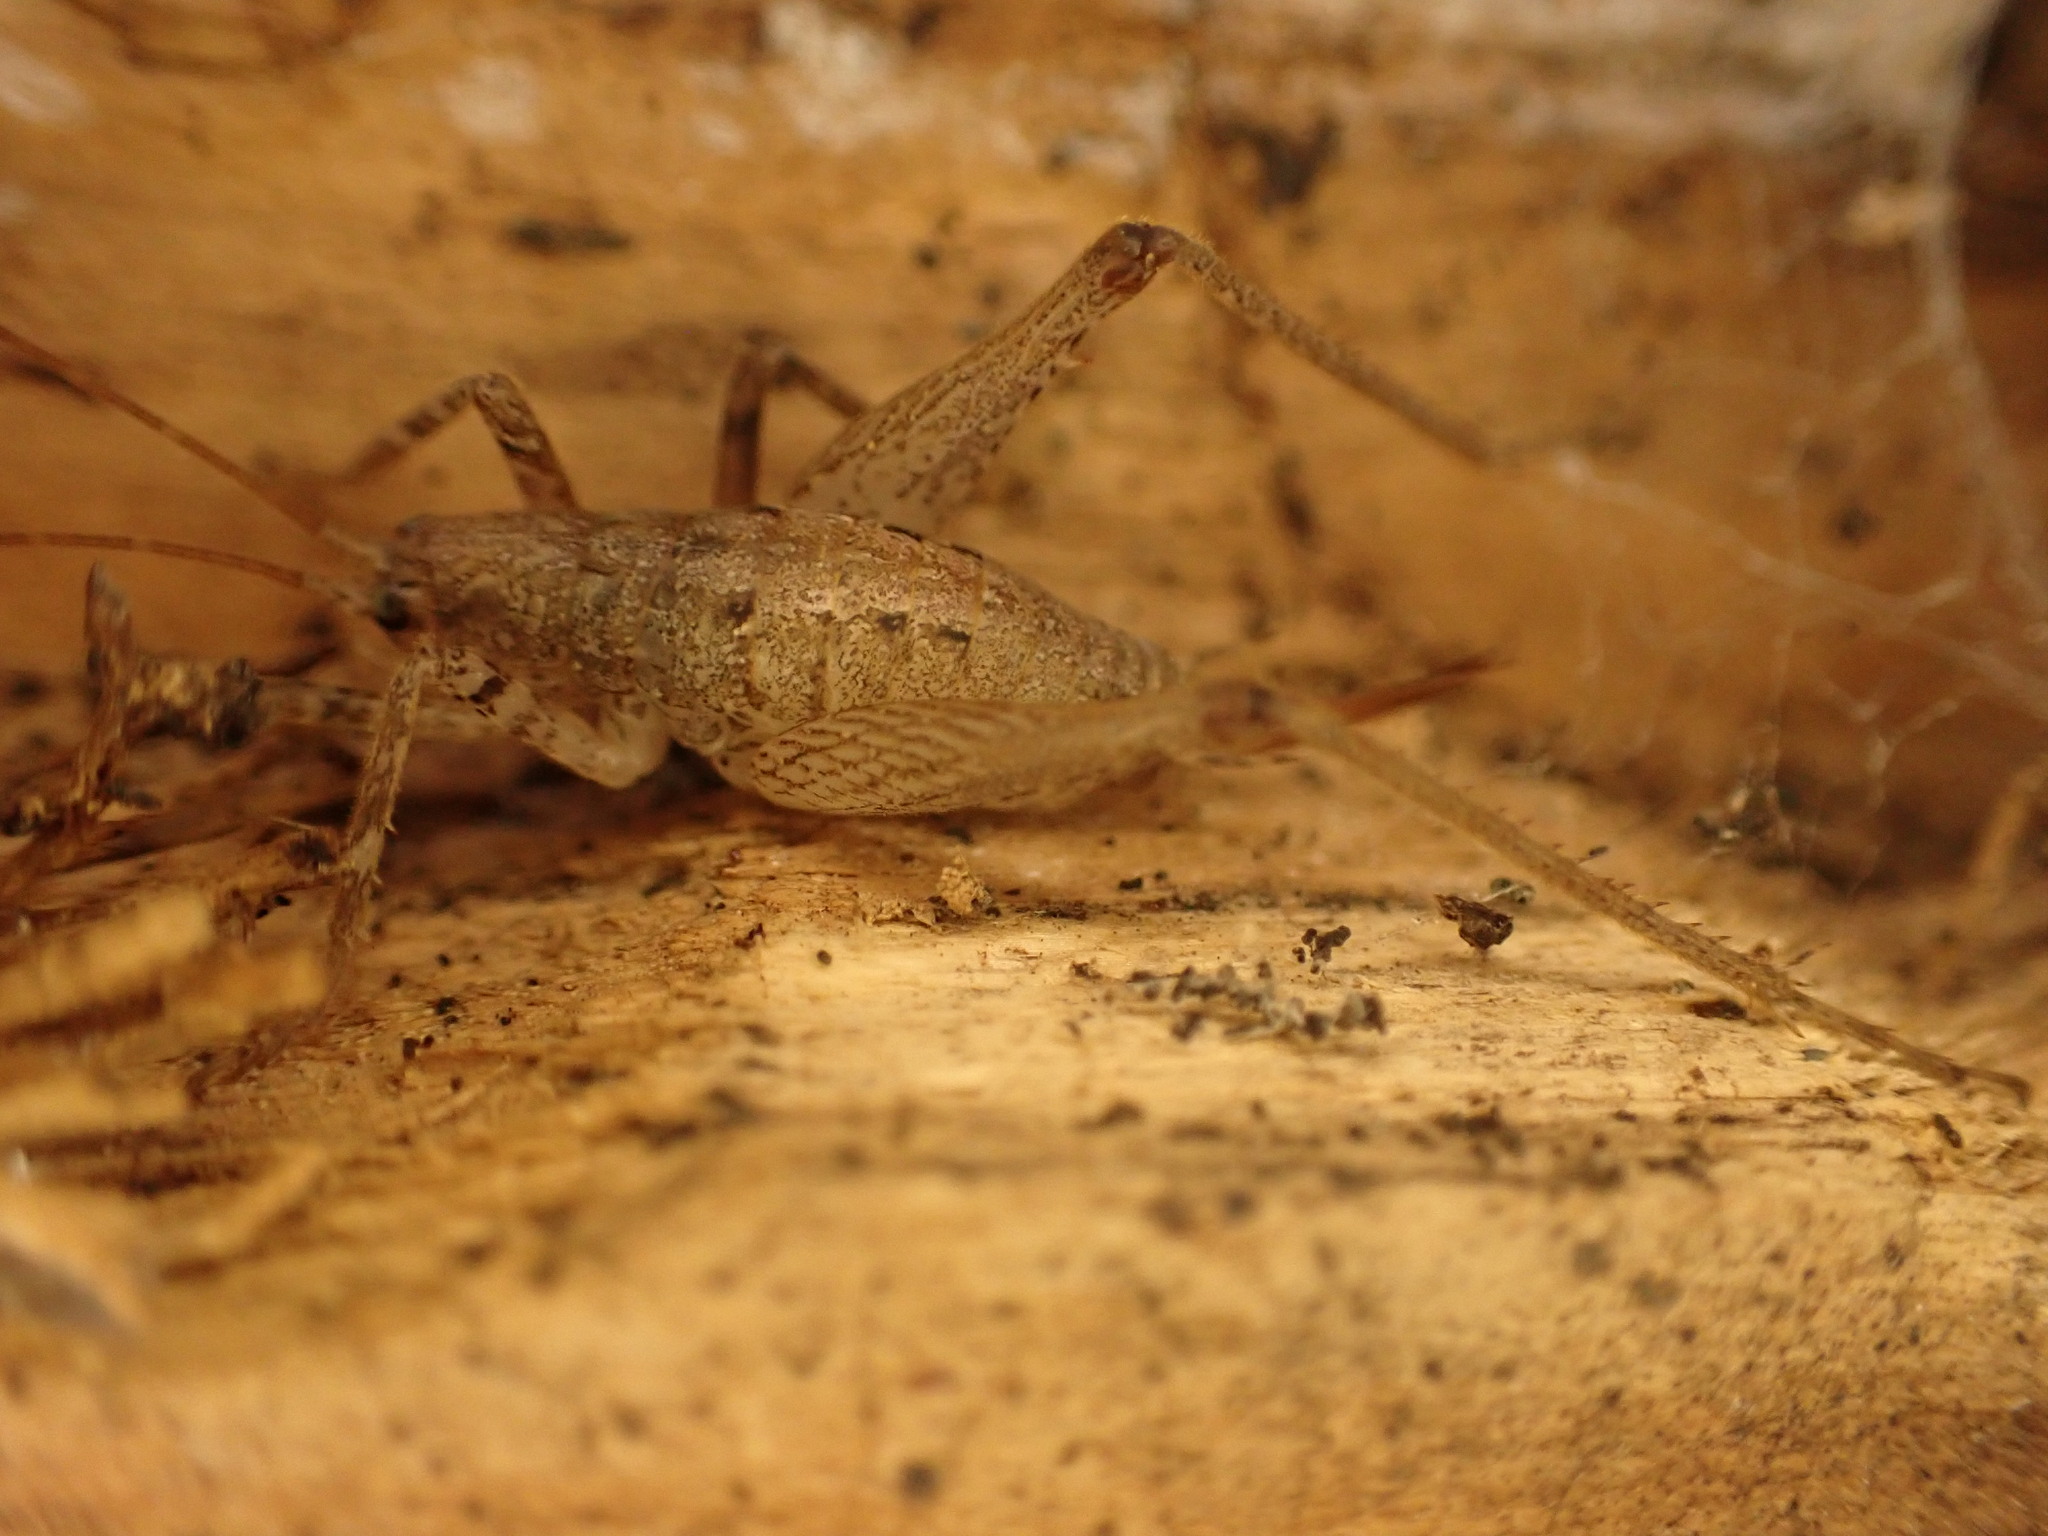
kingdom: Animalia
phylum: Arthropoda
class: Insecta
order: Orthoptera
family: Rhaphidophoridae
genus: Isoplectron
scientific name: Isoplectron armatum
